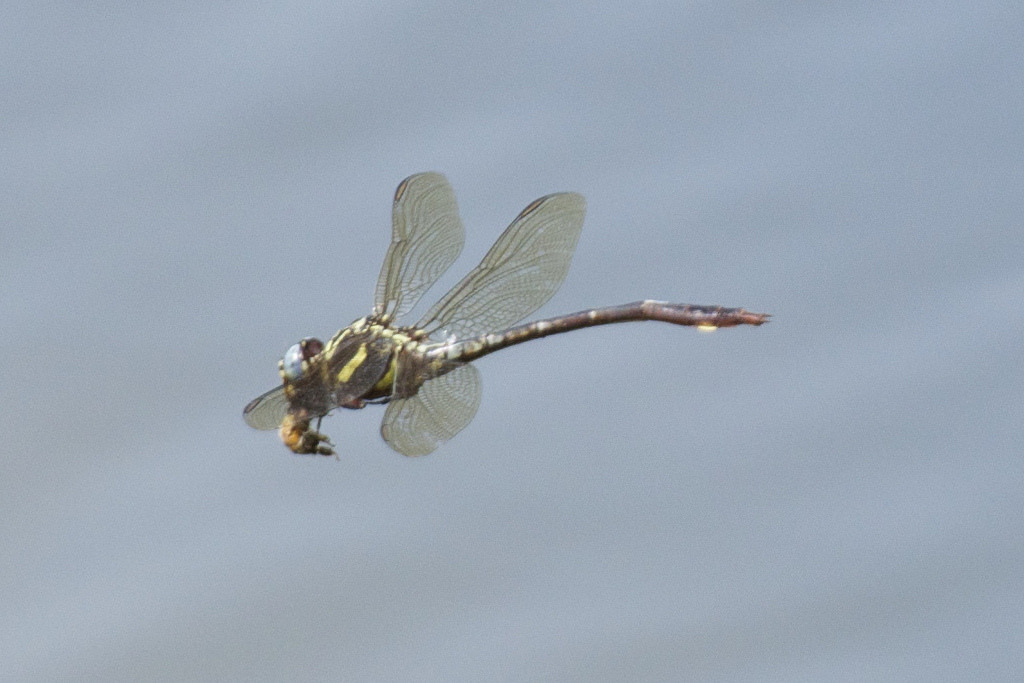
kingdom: Animalia
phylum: Arthropoda
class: Insecta
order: Odonata
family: Gomphidae
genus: Aphylla
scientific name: Aphylla williamsoni
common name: Two-striped forceptail
